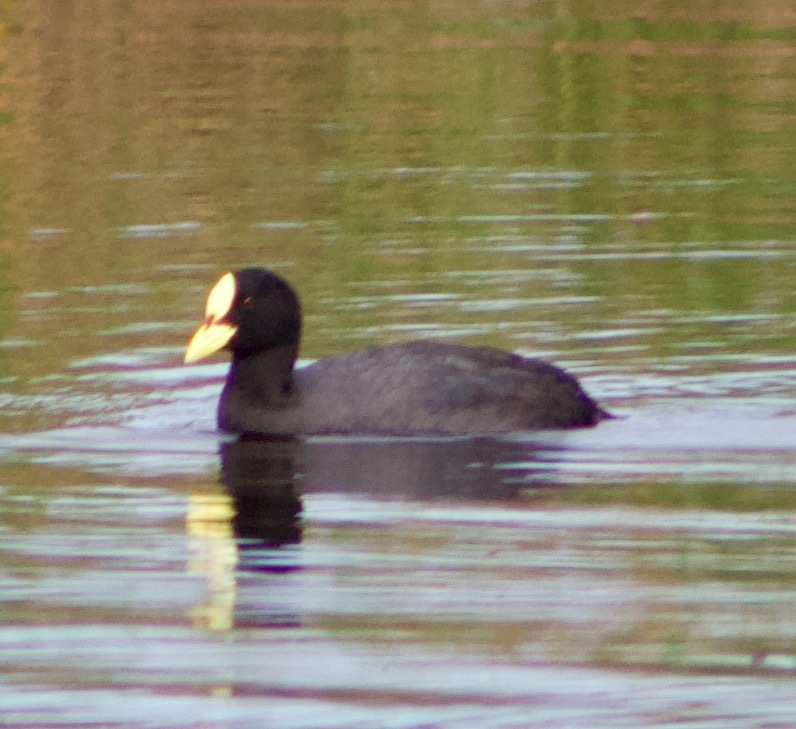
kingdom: Animalia
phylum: Chordata
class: Aves
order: Gruiformes
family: Rallidae
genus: Fulica
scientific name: Fulica armillata
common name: Red-gartered coot
